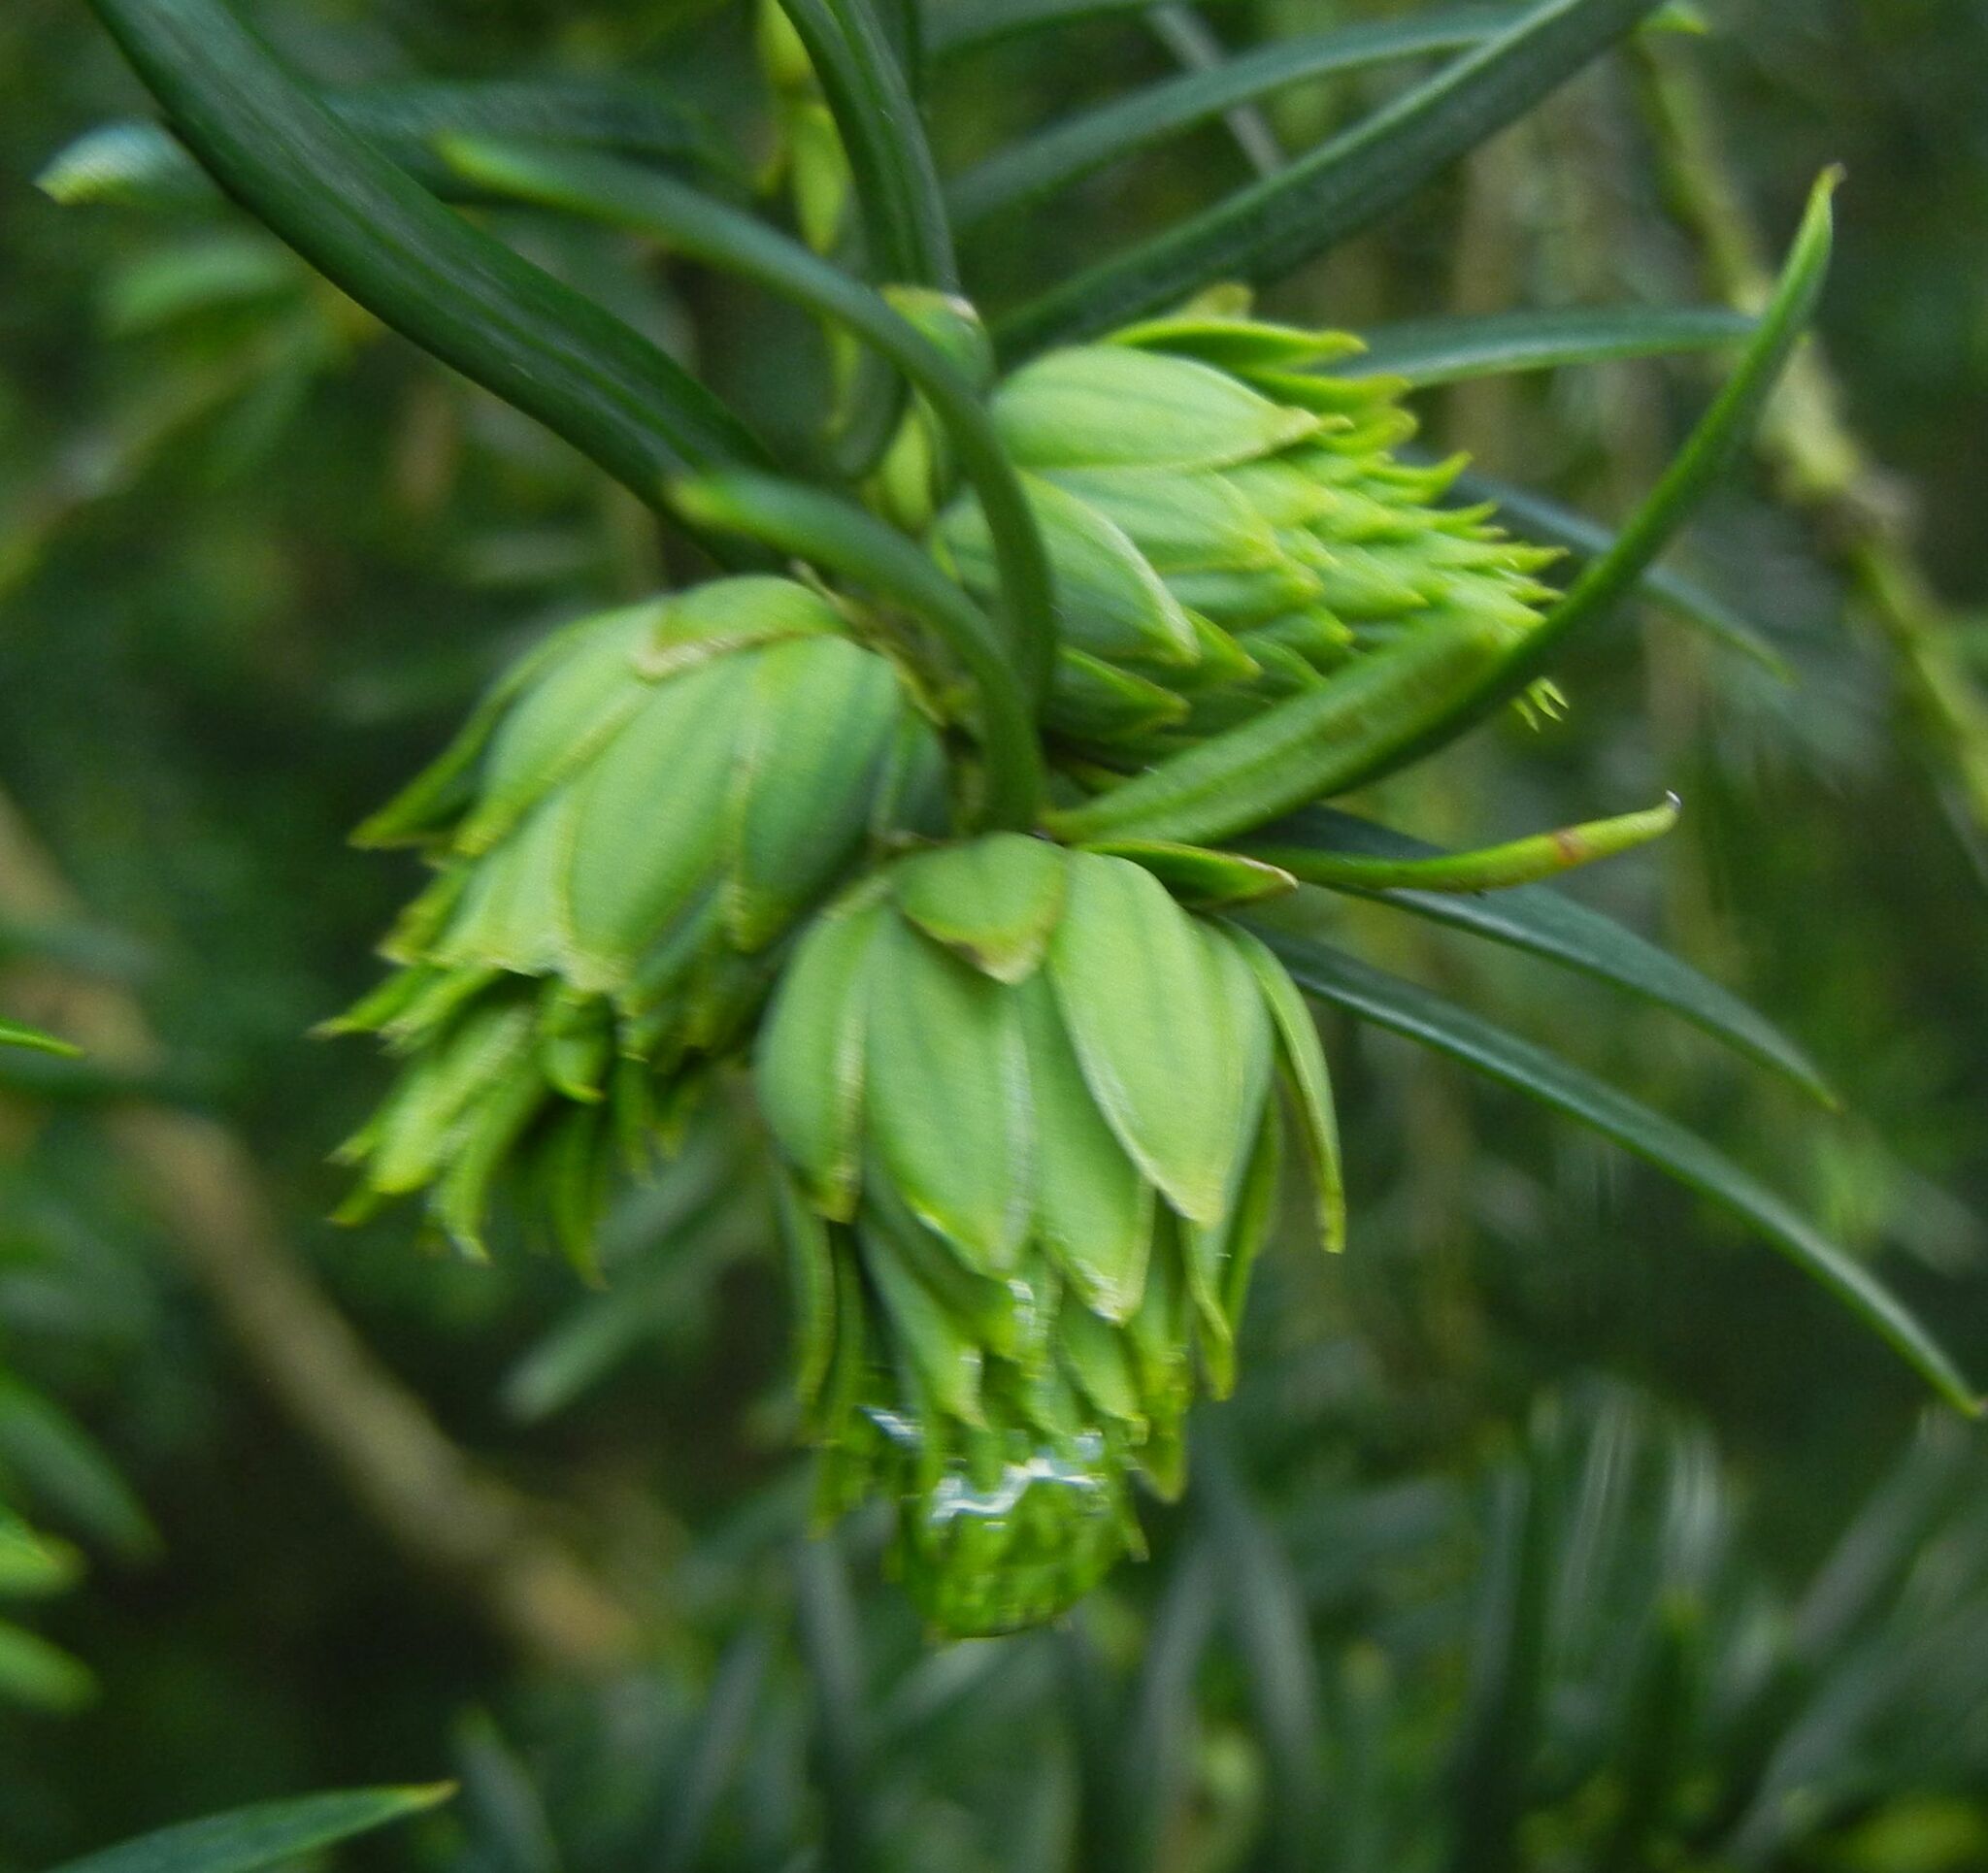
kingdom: Animalia
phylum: Arthropoda
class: Insecta
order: Diptera
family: Cecidomyiidae
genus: Taxomyia
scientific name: Taxomyia taxi
